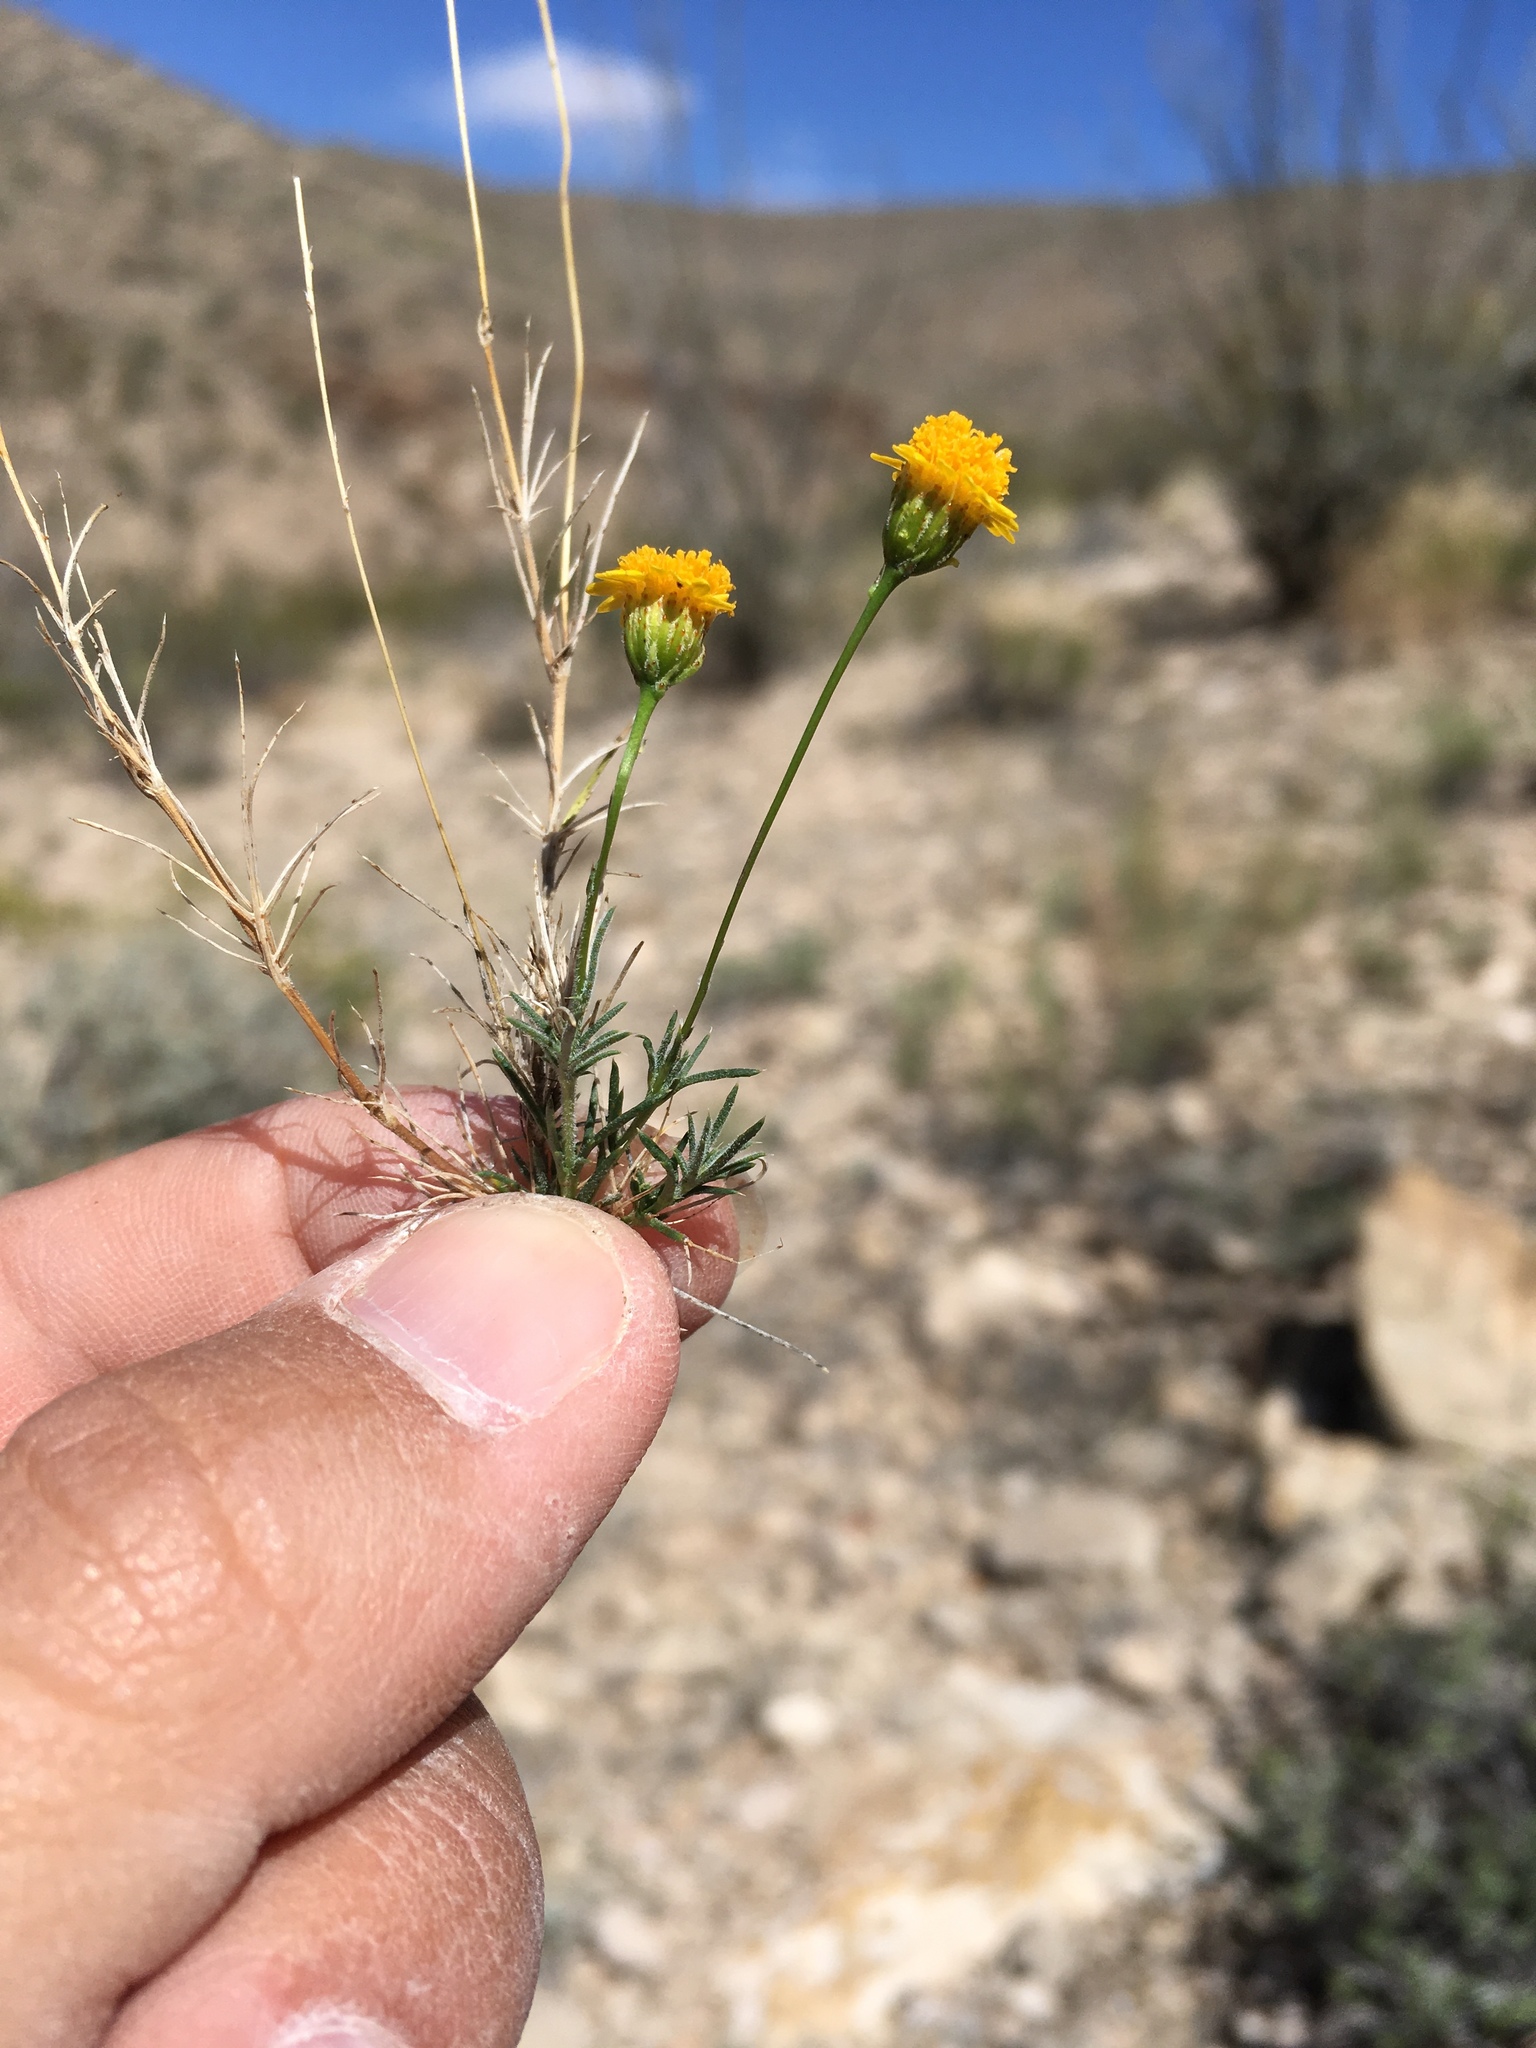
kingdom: Plantae
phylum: Tracheophyta
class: Magnoliopsida
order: Asterales
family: Asteraceae
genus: Thymophylla
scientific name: Thymophylla pentachaeta
